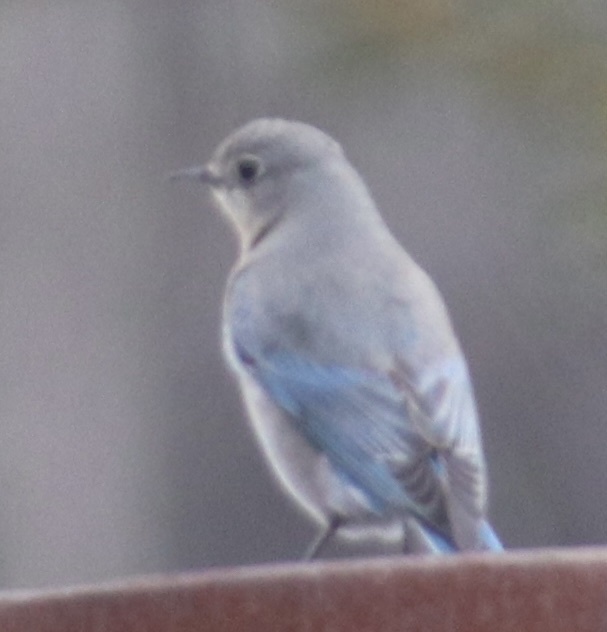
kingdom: Animalia
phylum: Chordata
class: Aves
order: Passeriformes
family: Turdidae
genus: Sialia
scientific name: Sialia currucoides
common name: Mountain bluebird
